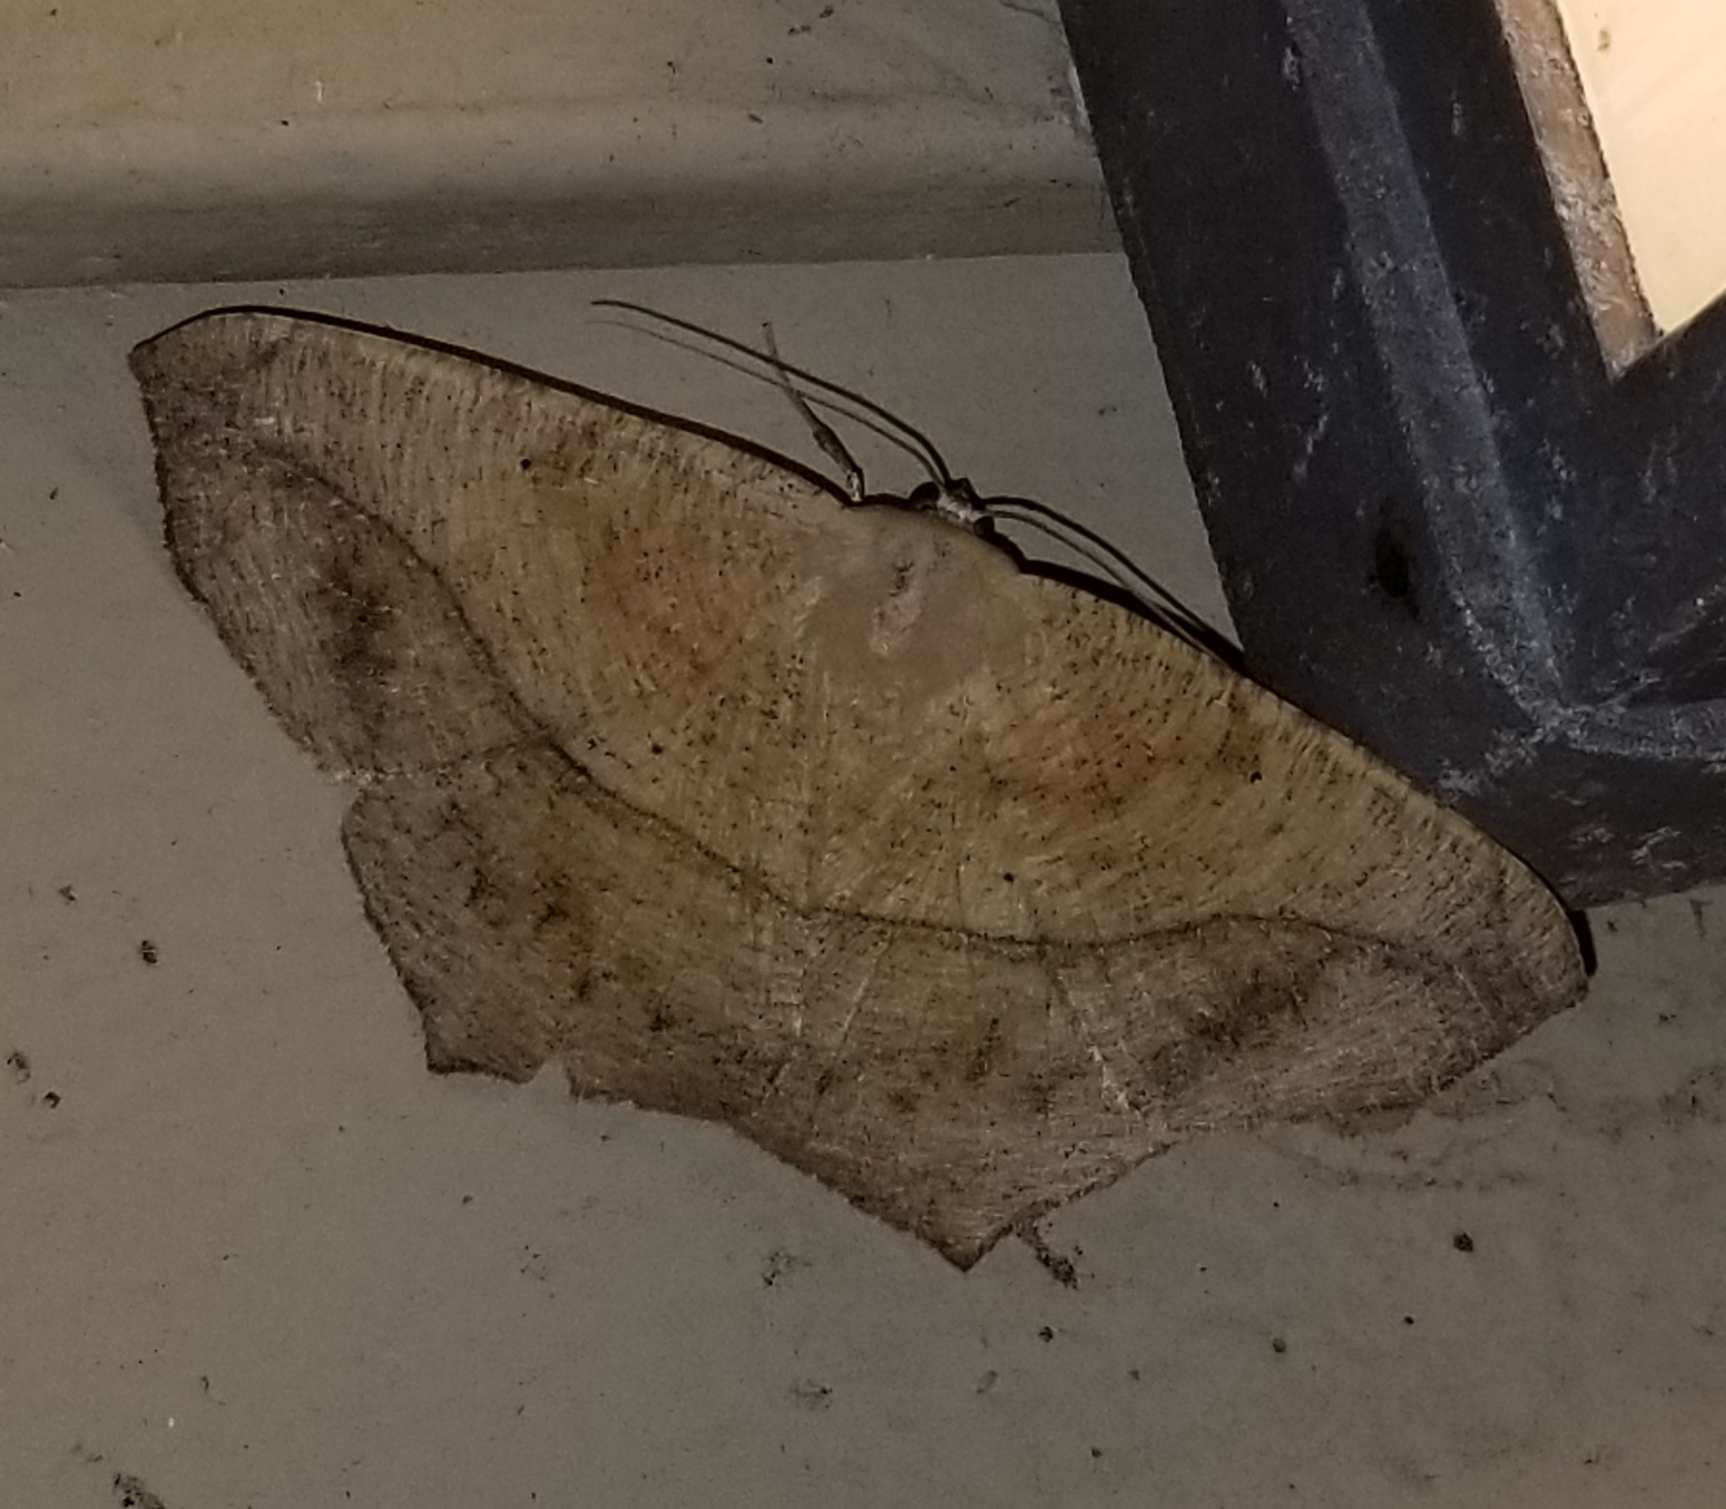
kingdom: Animalia
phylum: Arthropoda
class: Insecta
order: Lepidoptera
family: Geometridae
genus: Prochoerodes
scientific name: Prochoerodes lineola
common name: Large maple spanworm
